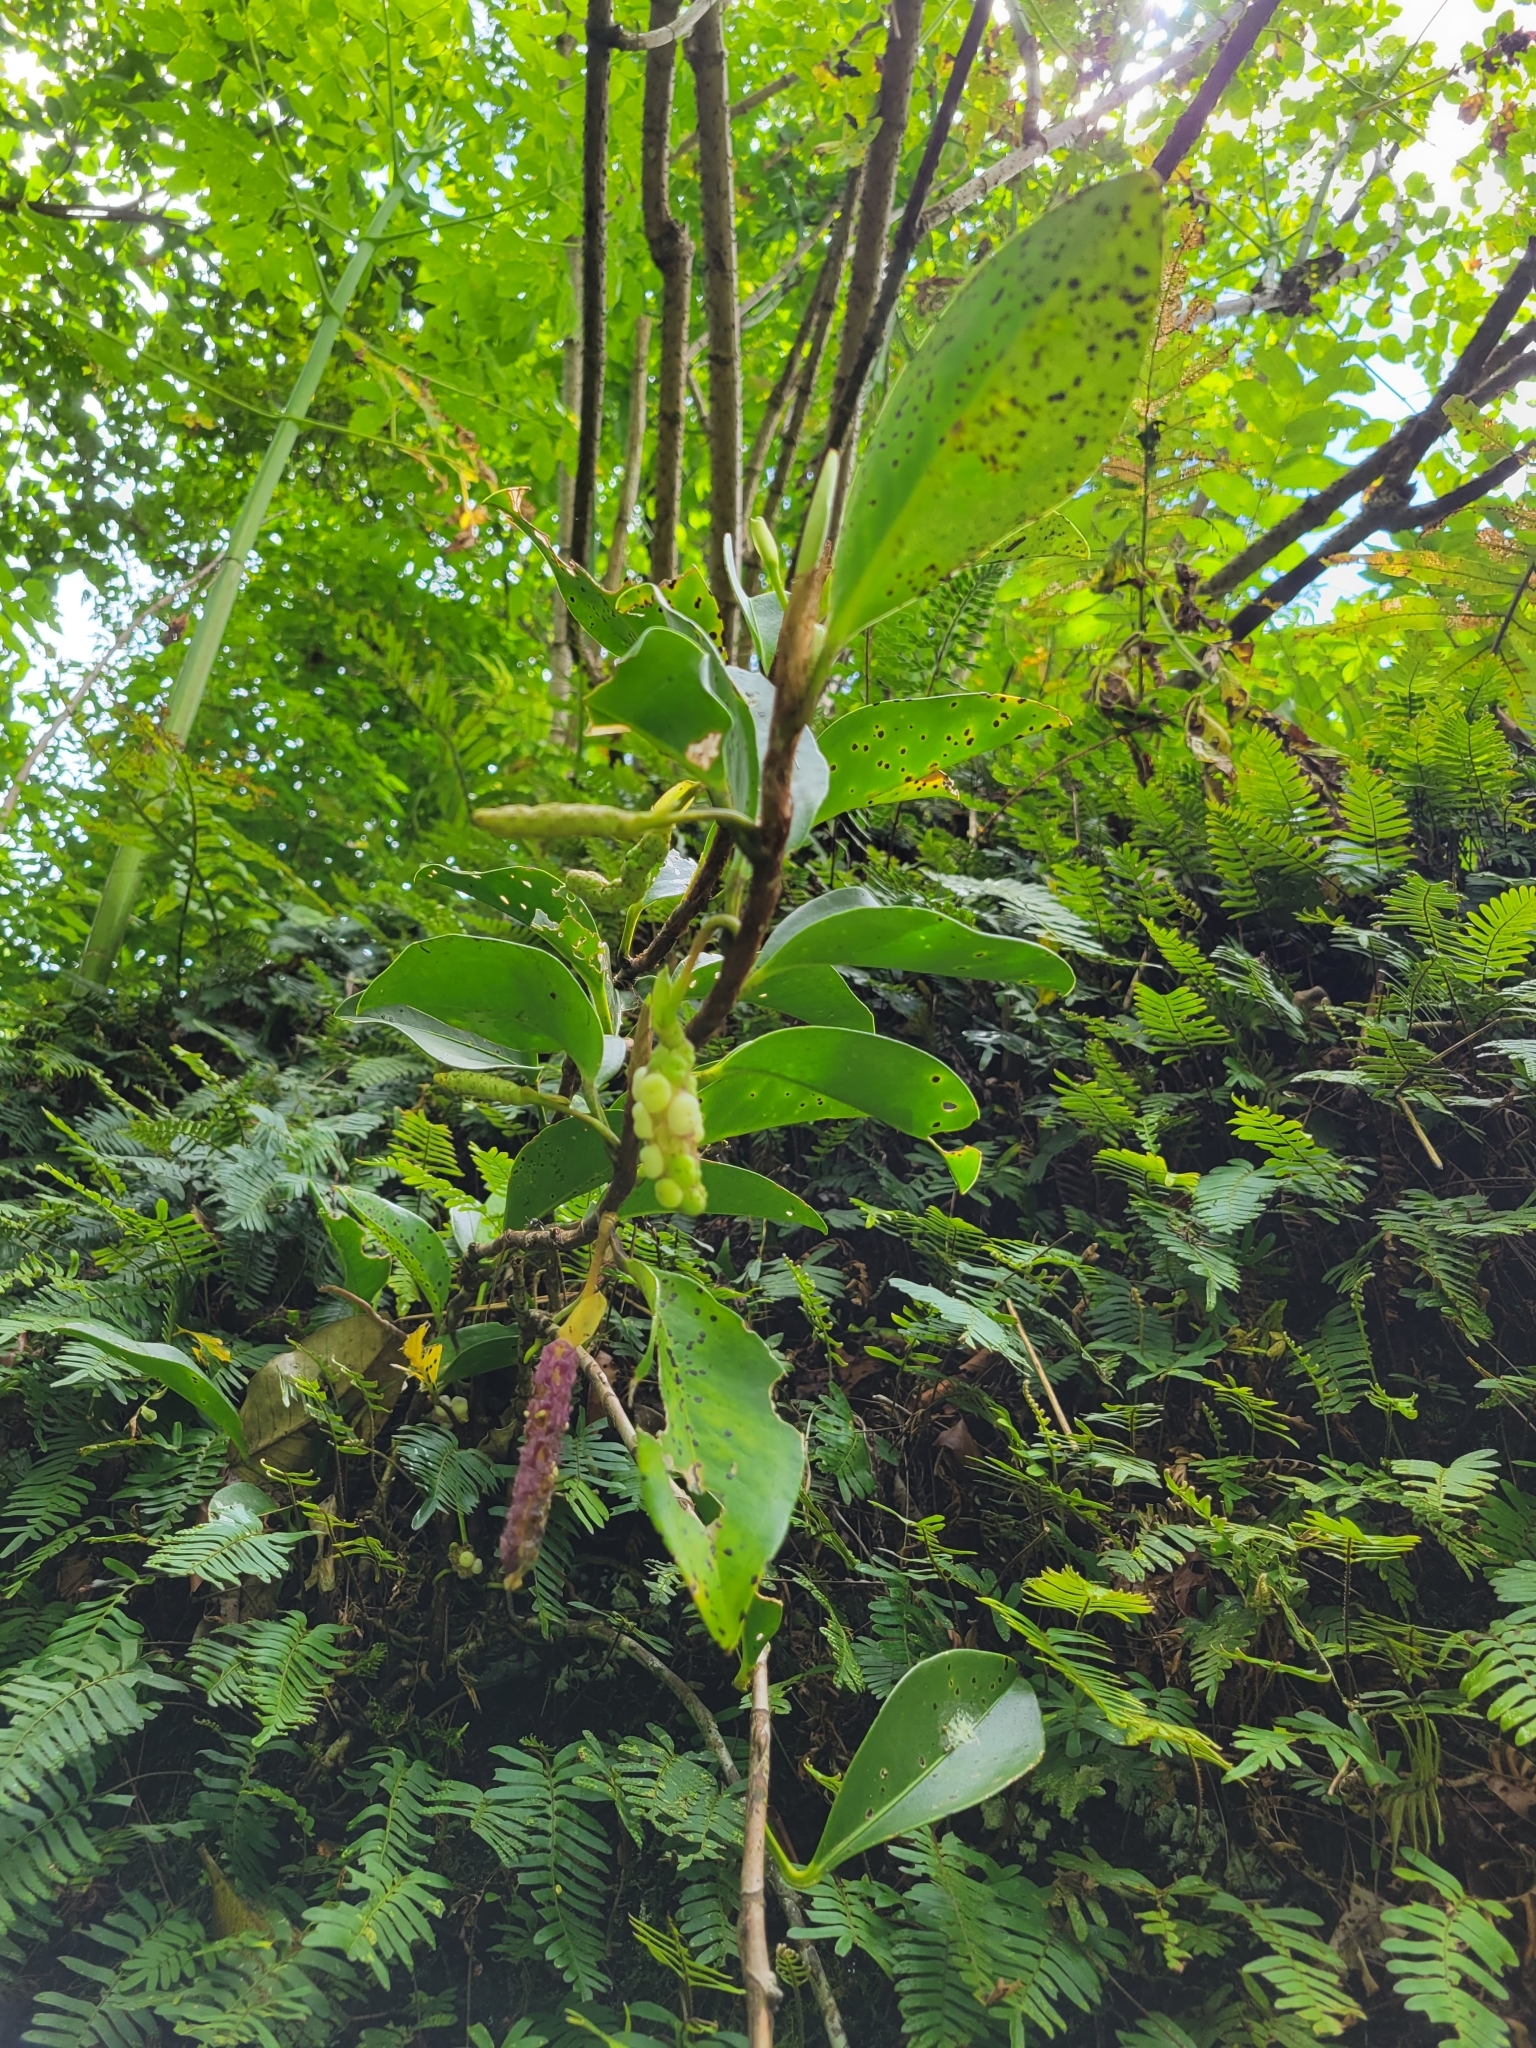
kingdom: Plantae
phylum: Tracheophyta
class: Liliopsida
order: Alismatales
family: Araceae
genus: Anthurium
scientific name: Anthurium scandens
